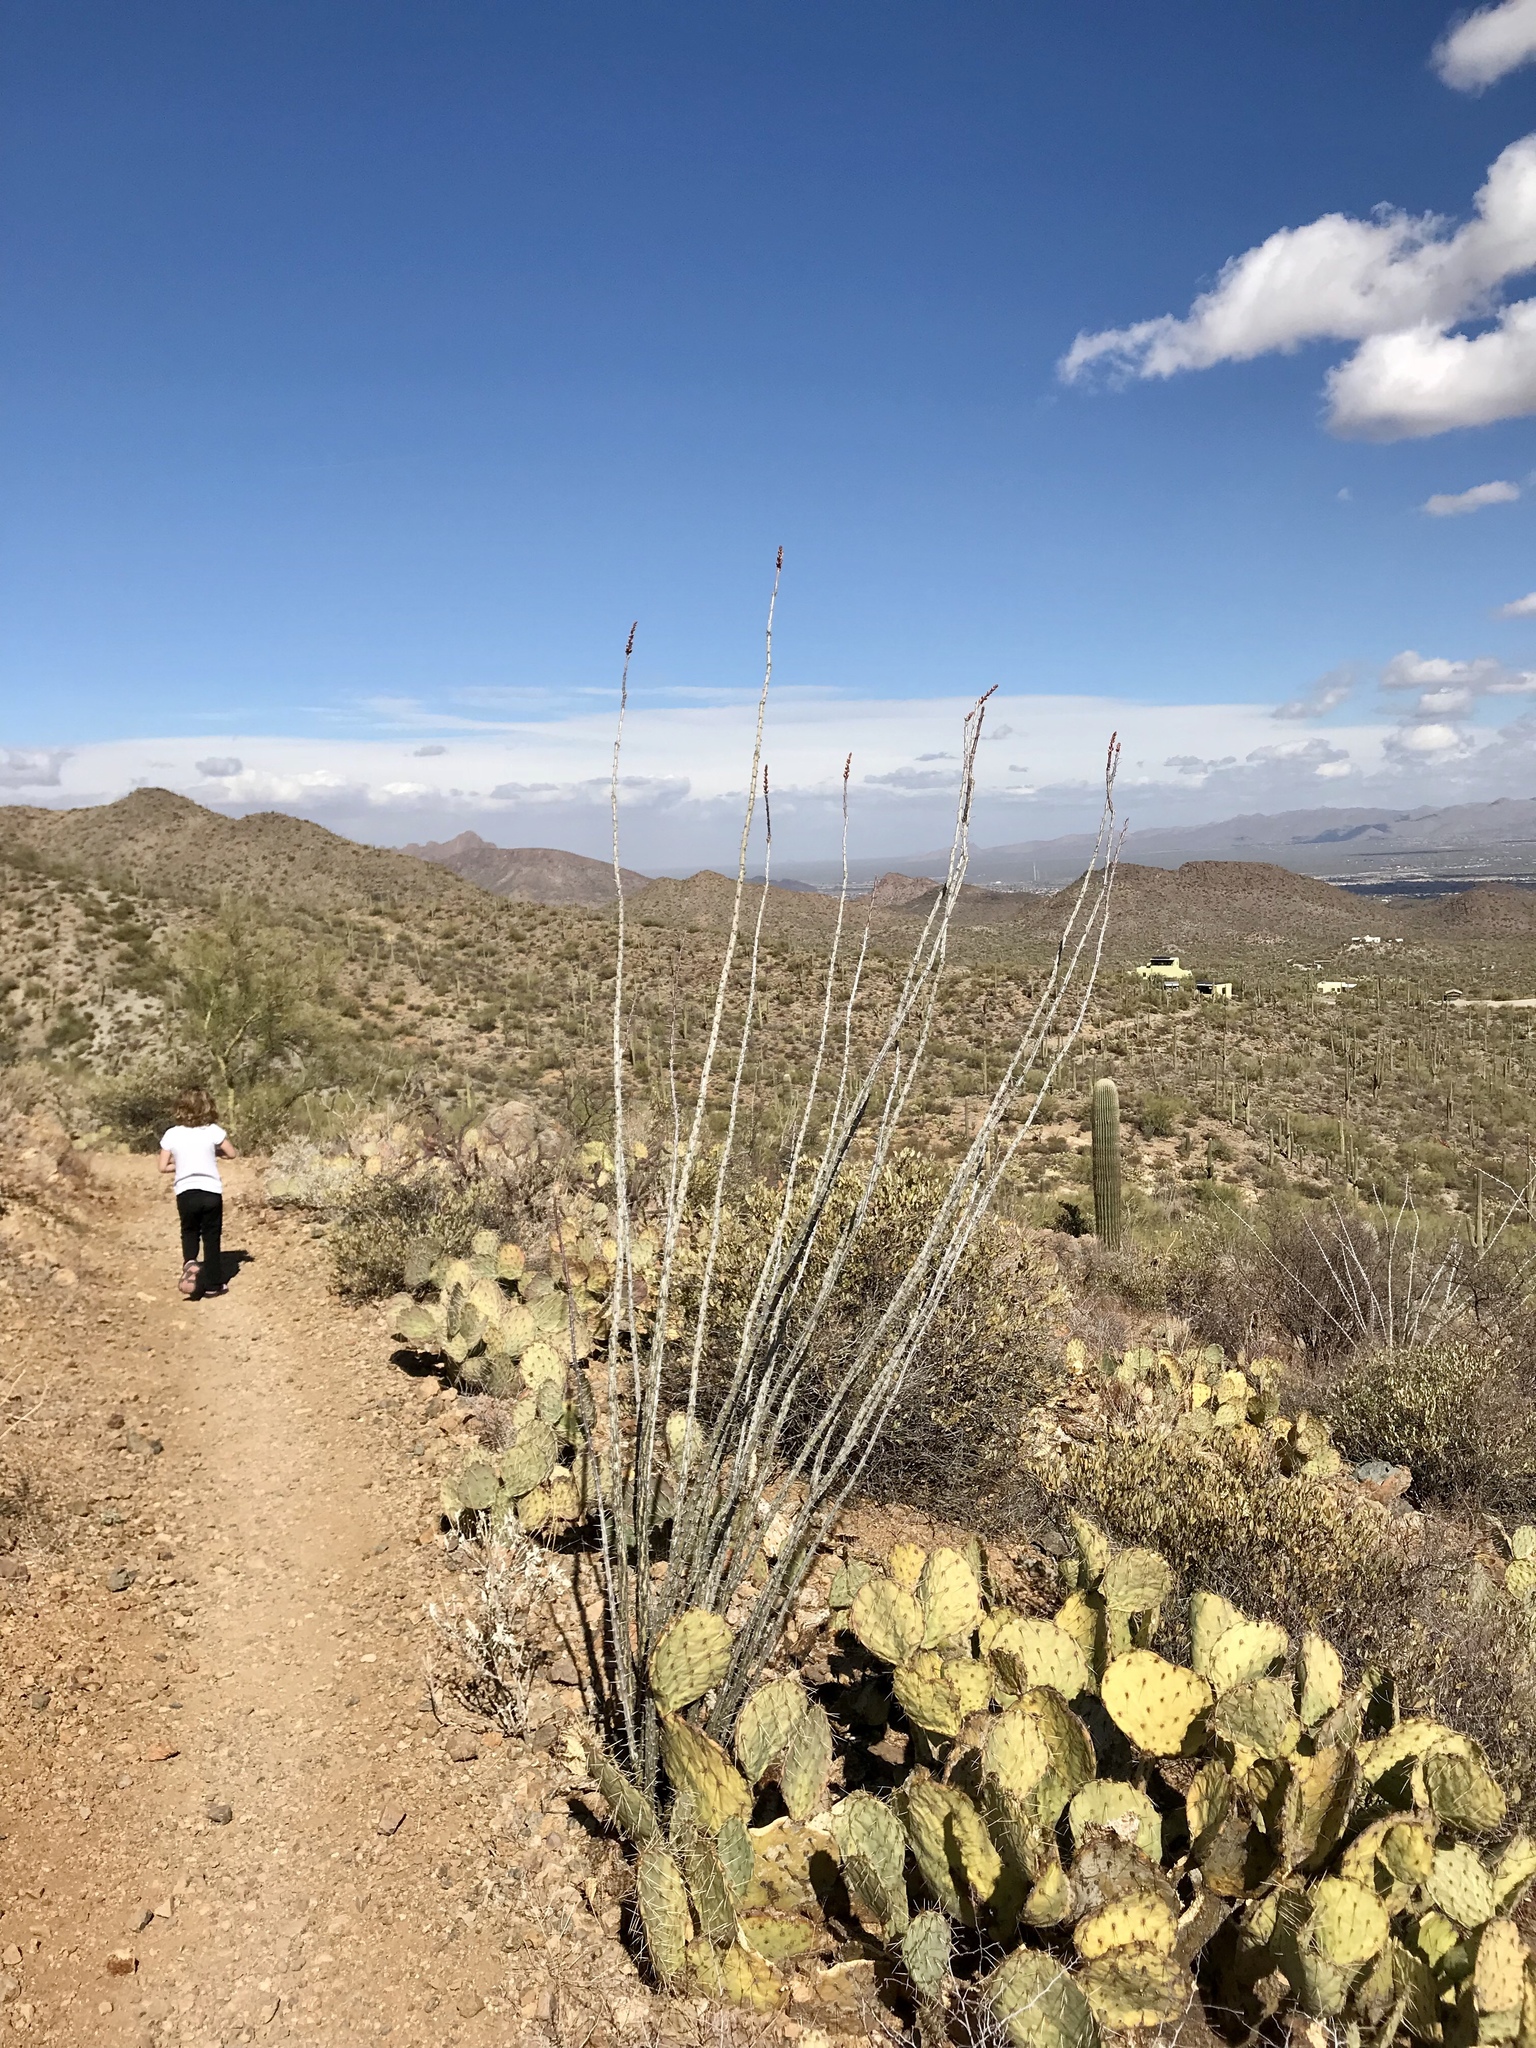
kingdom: Plantae
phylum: Tracheophyta
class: Magnoliopsida
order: Ericales
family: Fouquieriaceae
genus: Fouquieria
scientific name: Fouquieria splendens
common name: Vine-cactus
